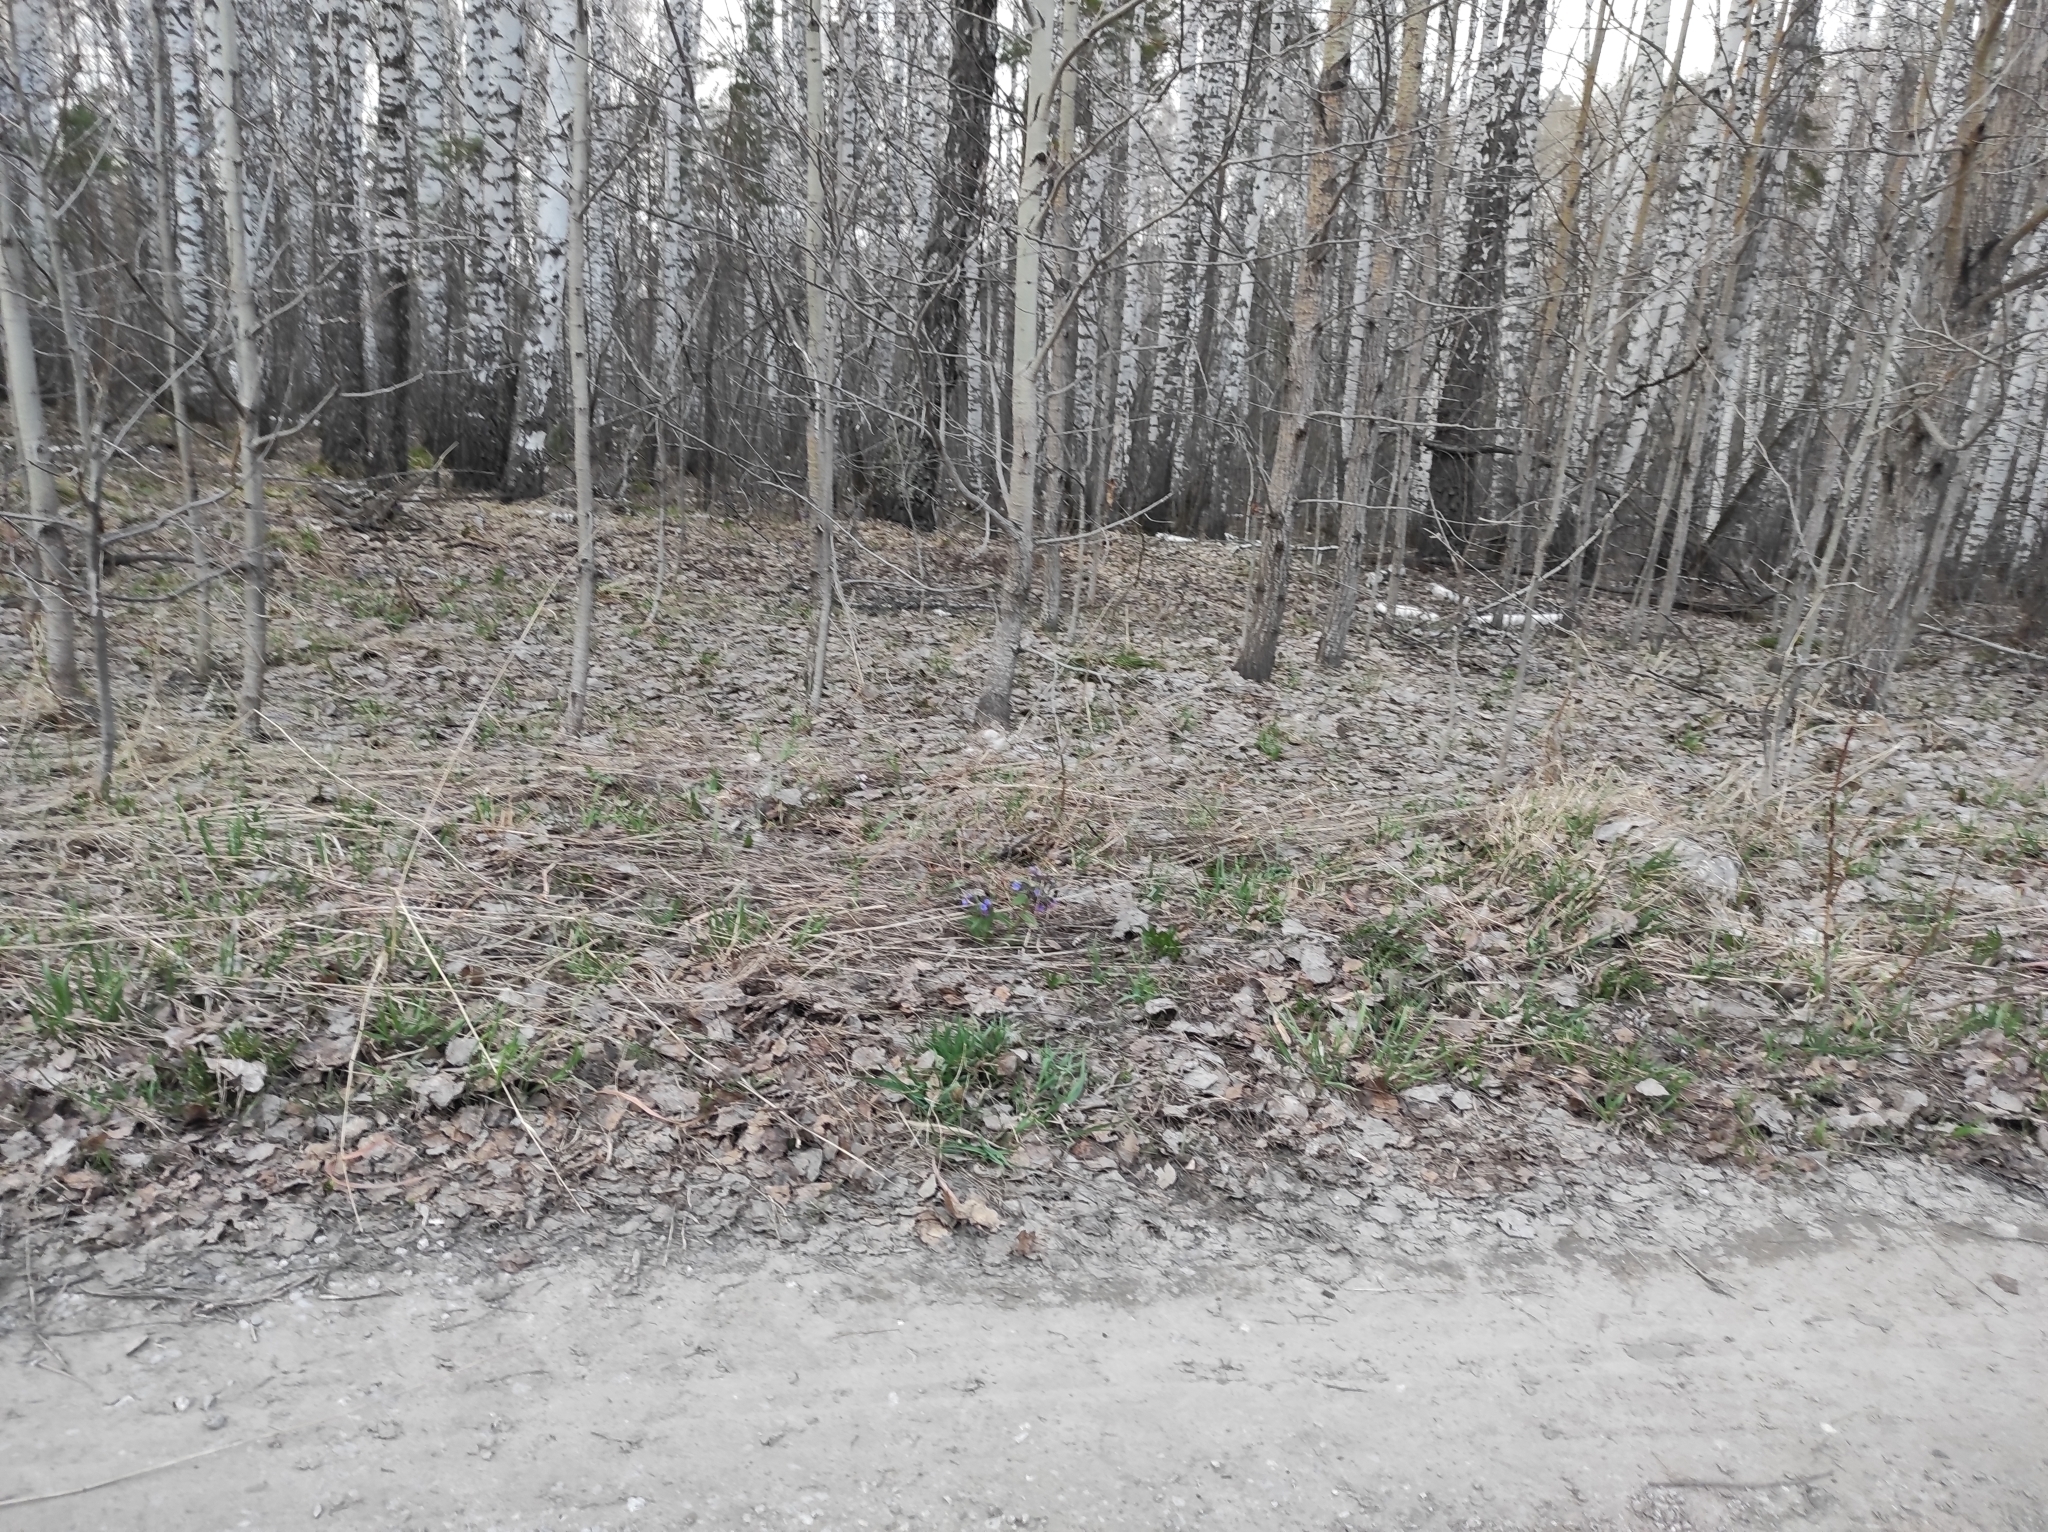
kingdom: Plantae
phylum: Tracheophyta
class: Magnoliopsida
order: Fagales
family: Betulaceae
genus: Betula
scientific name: Betula pendula
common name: Silver birch
